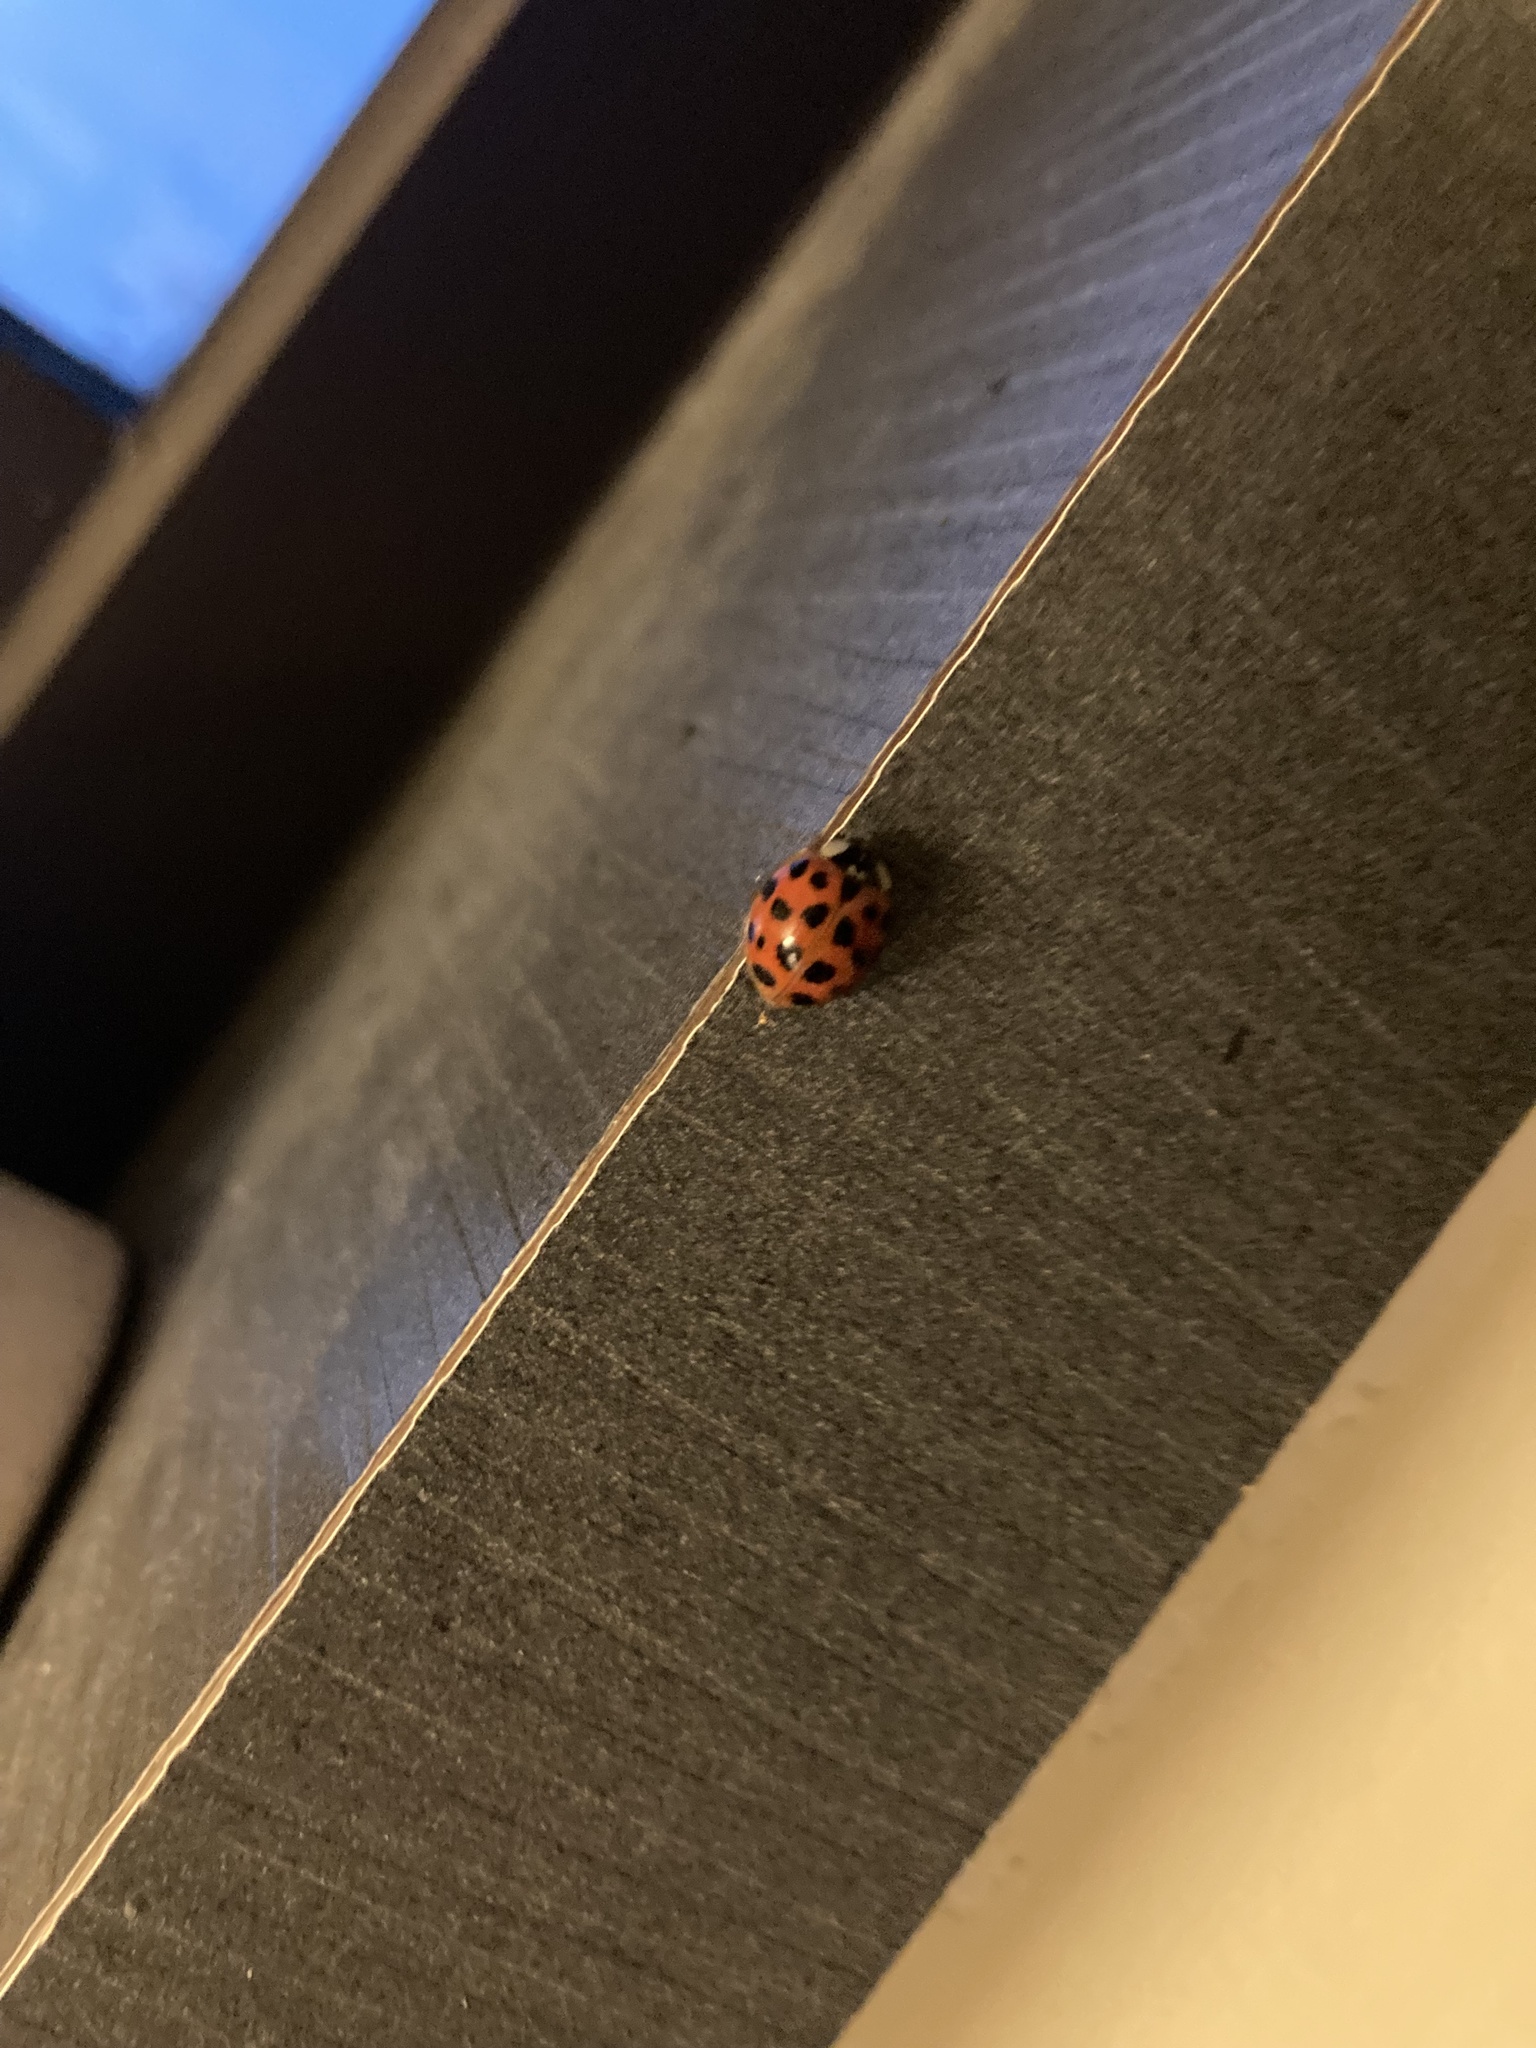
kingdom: Animalia
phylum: Arthropoda
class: Insecta
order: Coleoptera
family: Coccinellidae
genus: Harmonia
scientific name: Harmonia axyridis
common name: Harlequin ladybird
